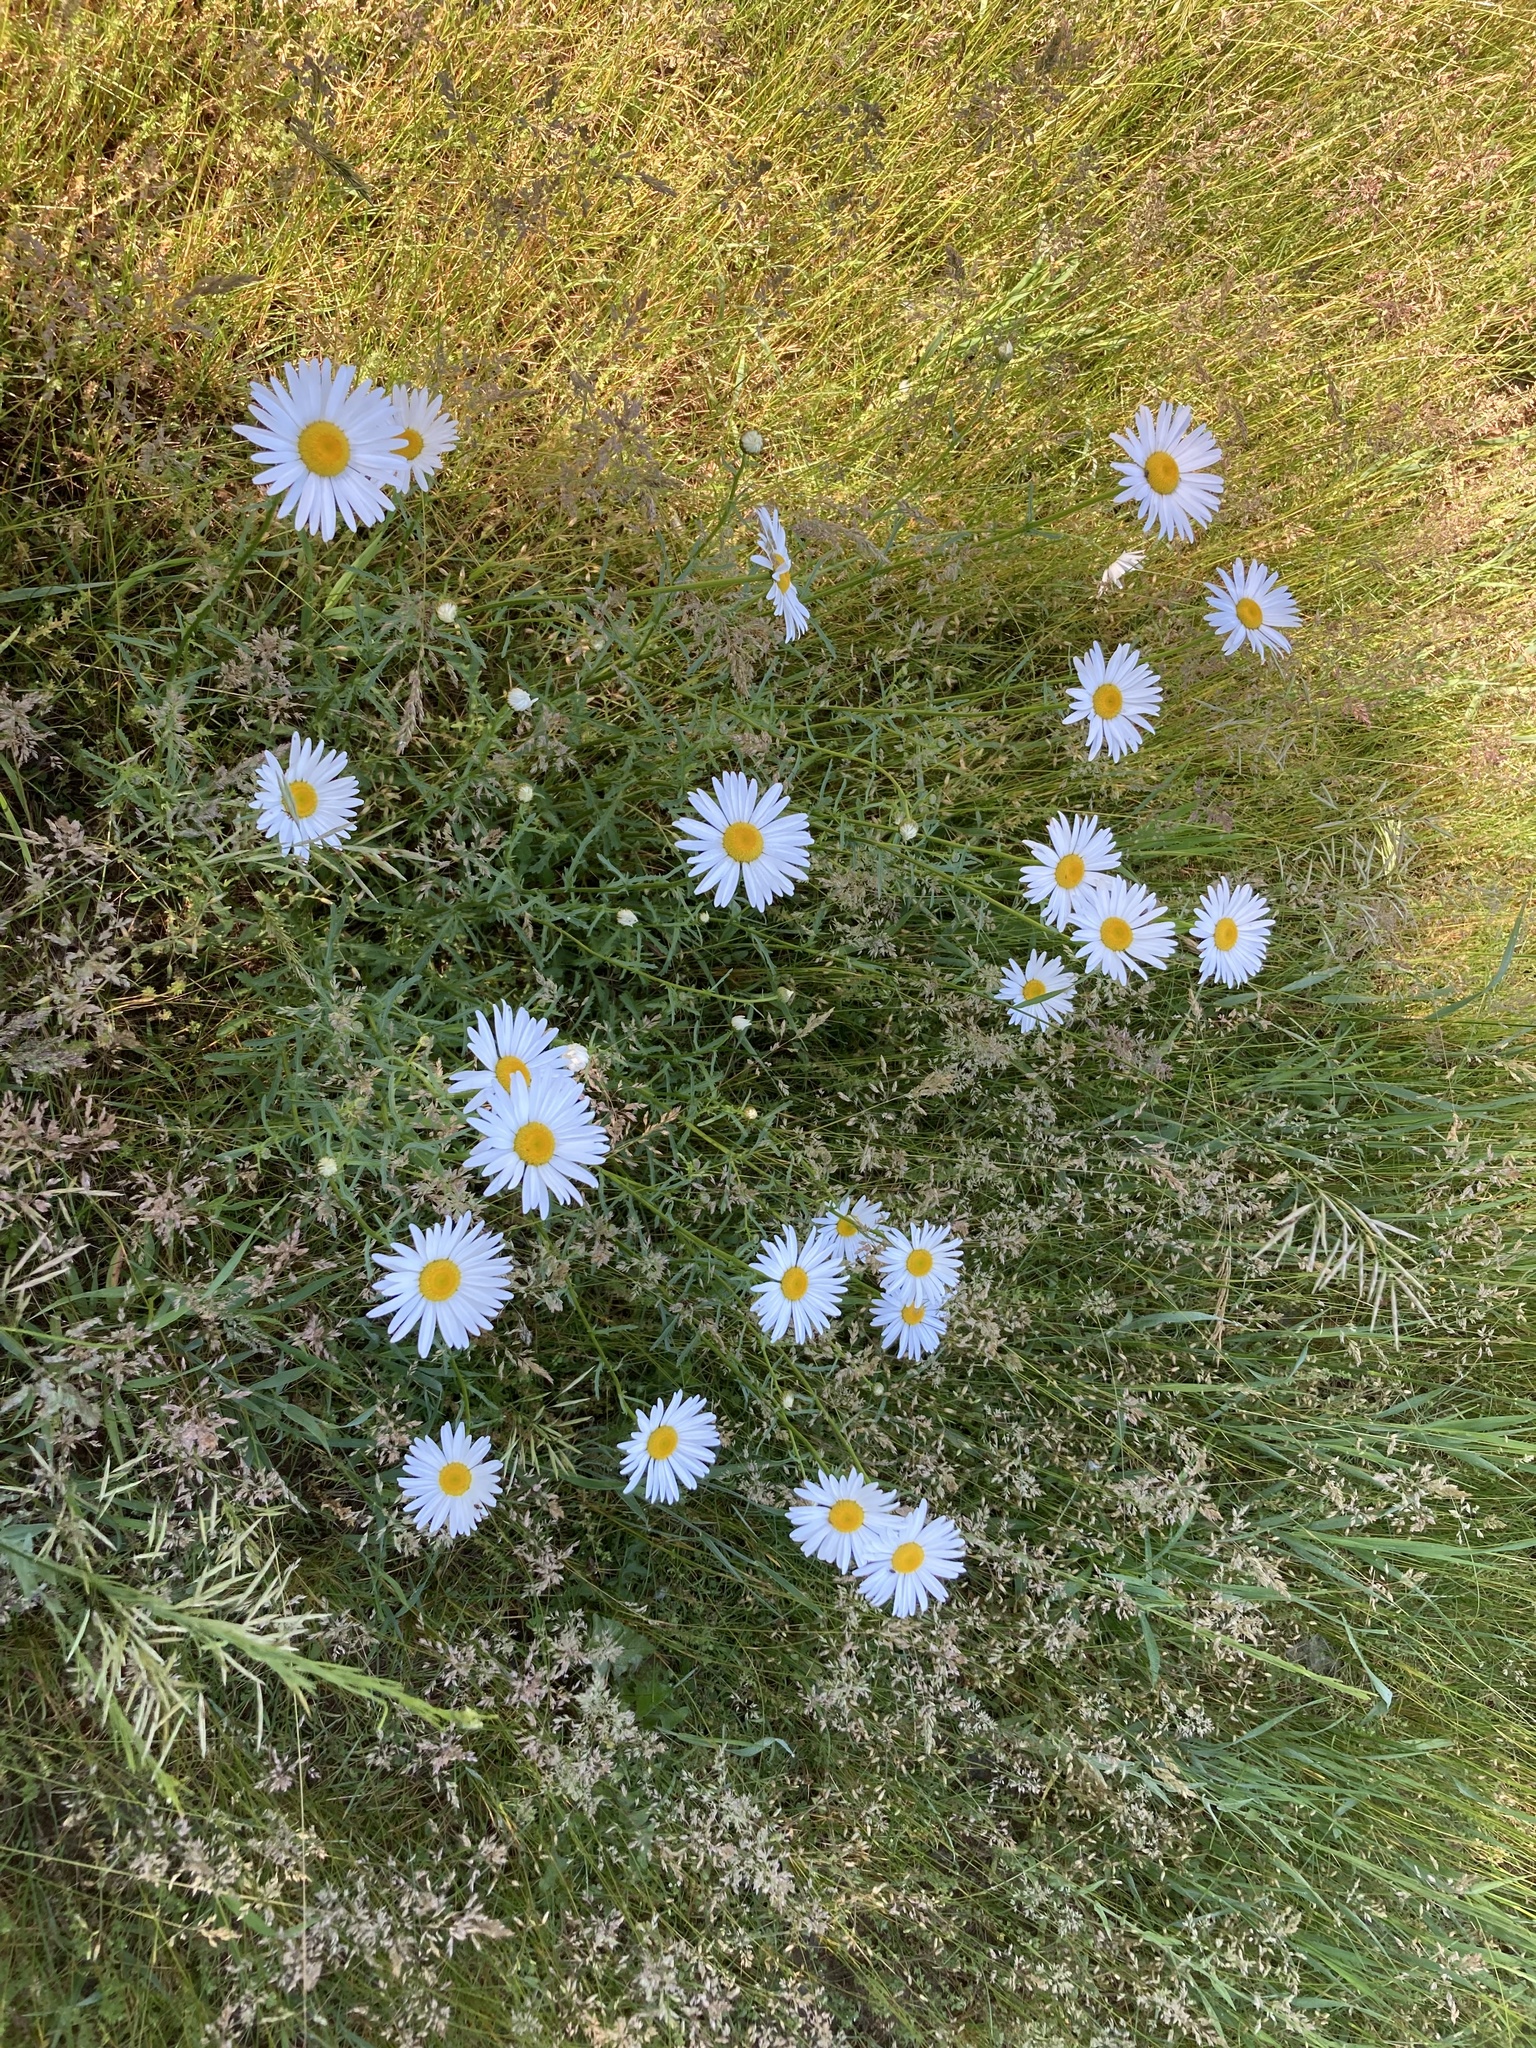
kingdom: Plantae
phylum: Tracheophyta
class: Magnoliopsida
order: Asterales
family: Asteraceae
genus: Leucanthemum
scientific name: Leucanthemum vulgare
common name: Oxeye daisy
